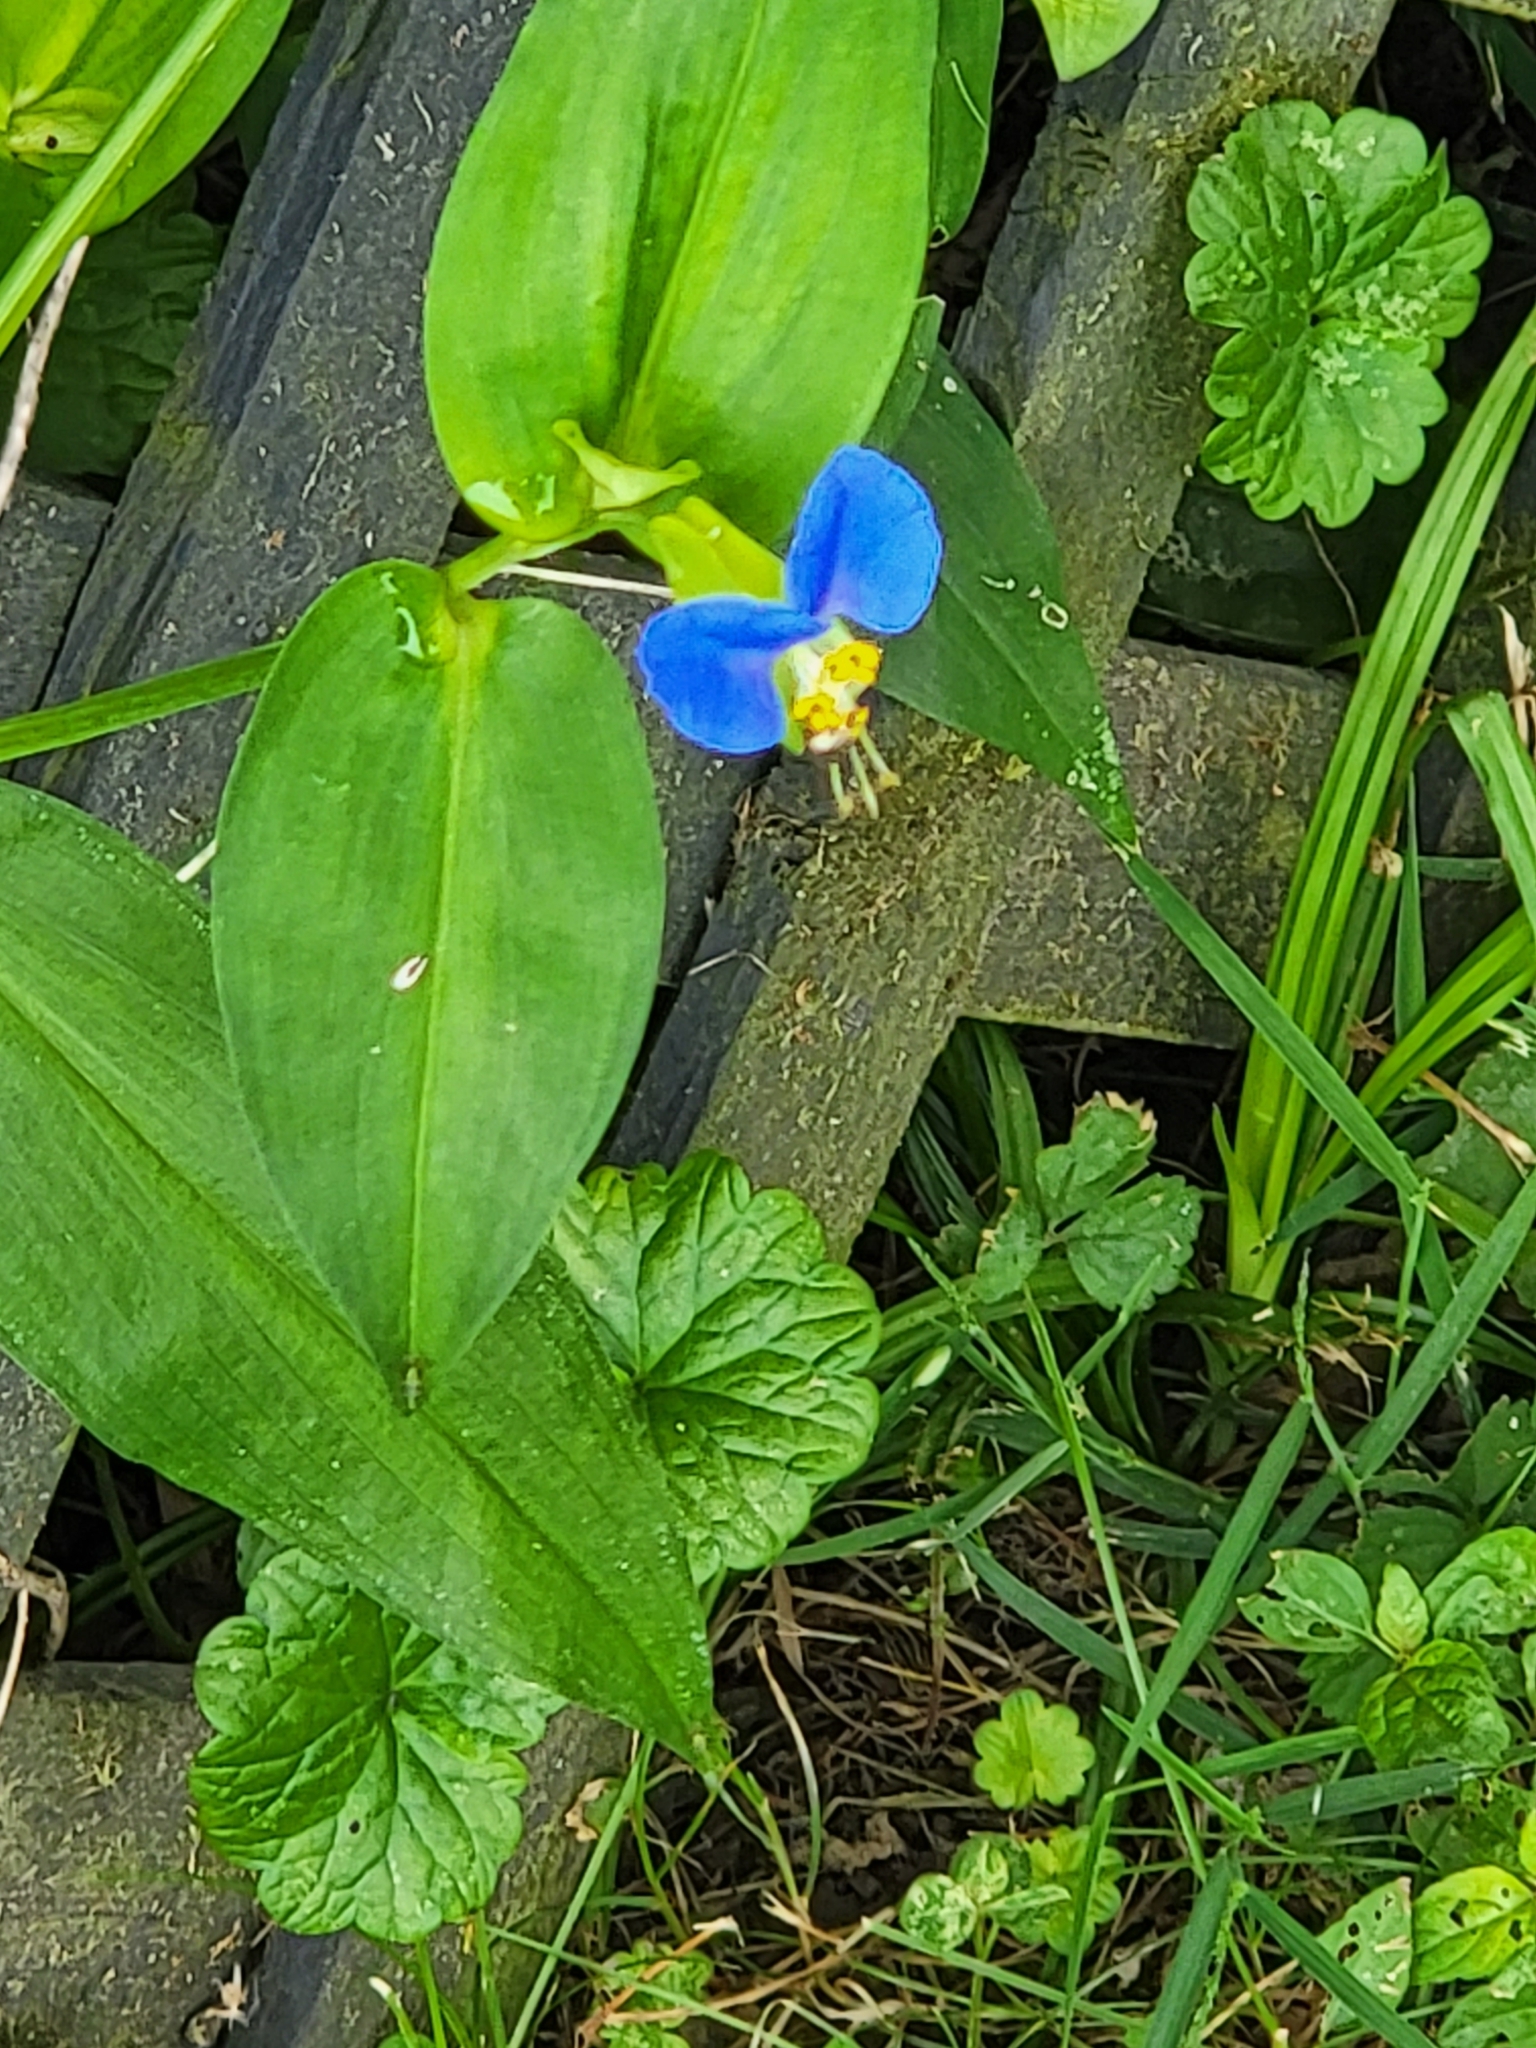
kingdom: Plantae
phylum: Tracheophyta
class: Liliopsida
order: Commelinales
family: Commelinaceae
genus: Commelina
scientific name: Commelina communis
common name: Asiatic dayflower
